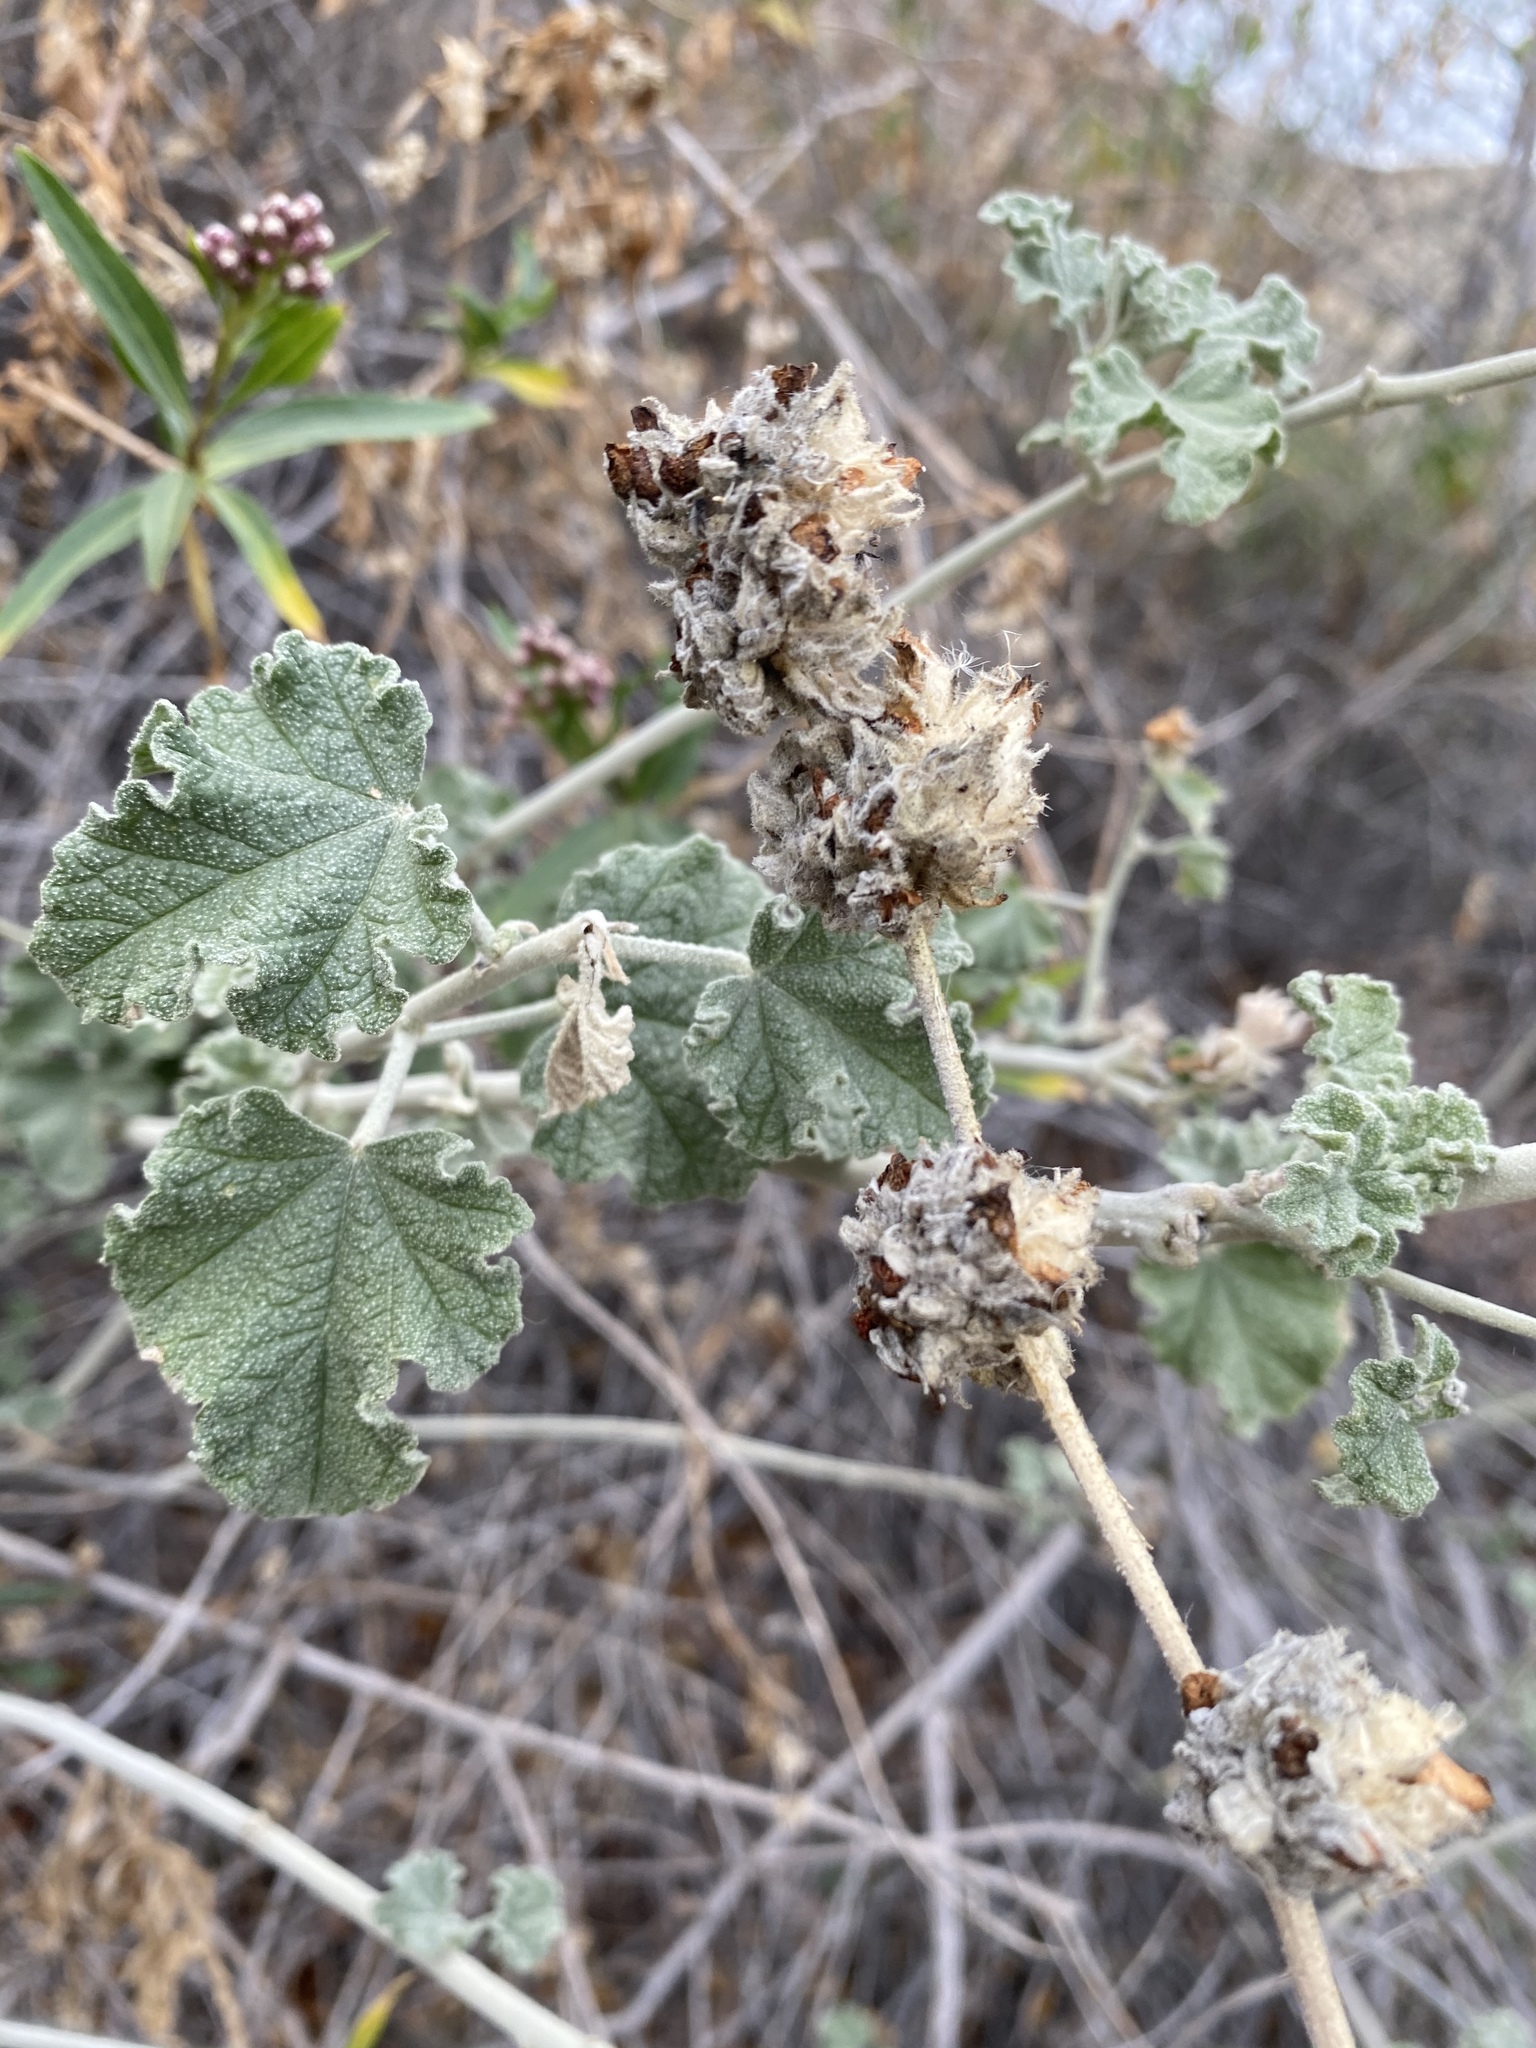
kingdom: Plantae
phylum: Tracheophyta
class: Magnoliopsida
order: Malvales
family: Malvaceae
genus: Malacothamnus
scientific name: Malacothamnus enigmaticus
